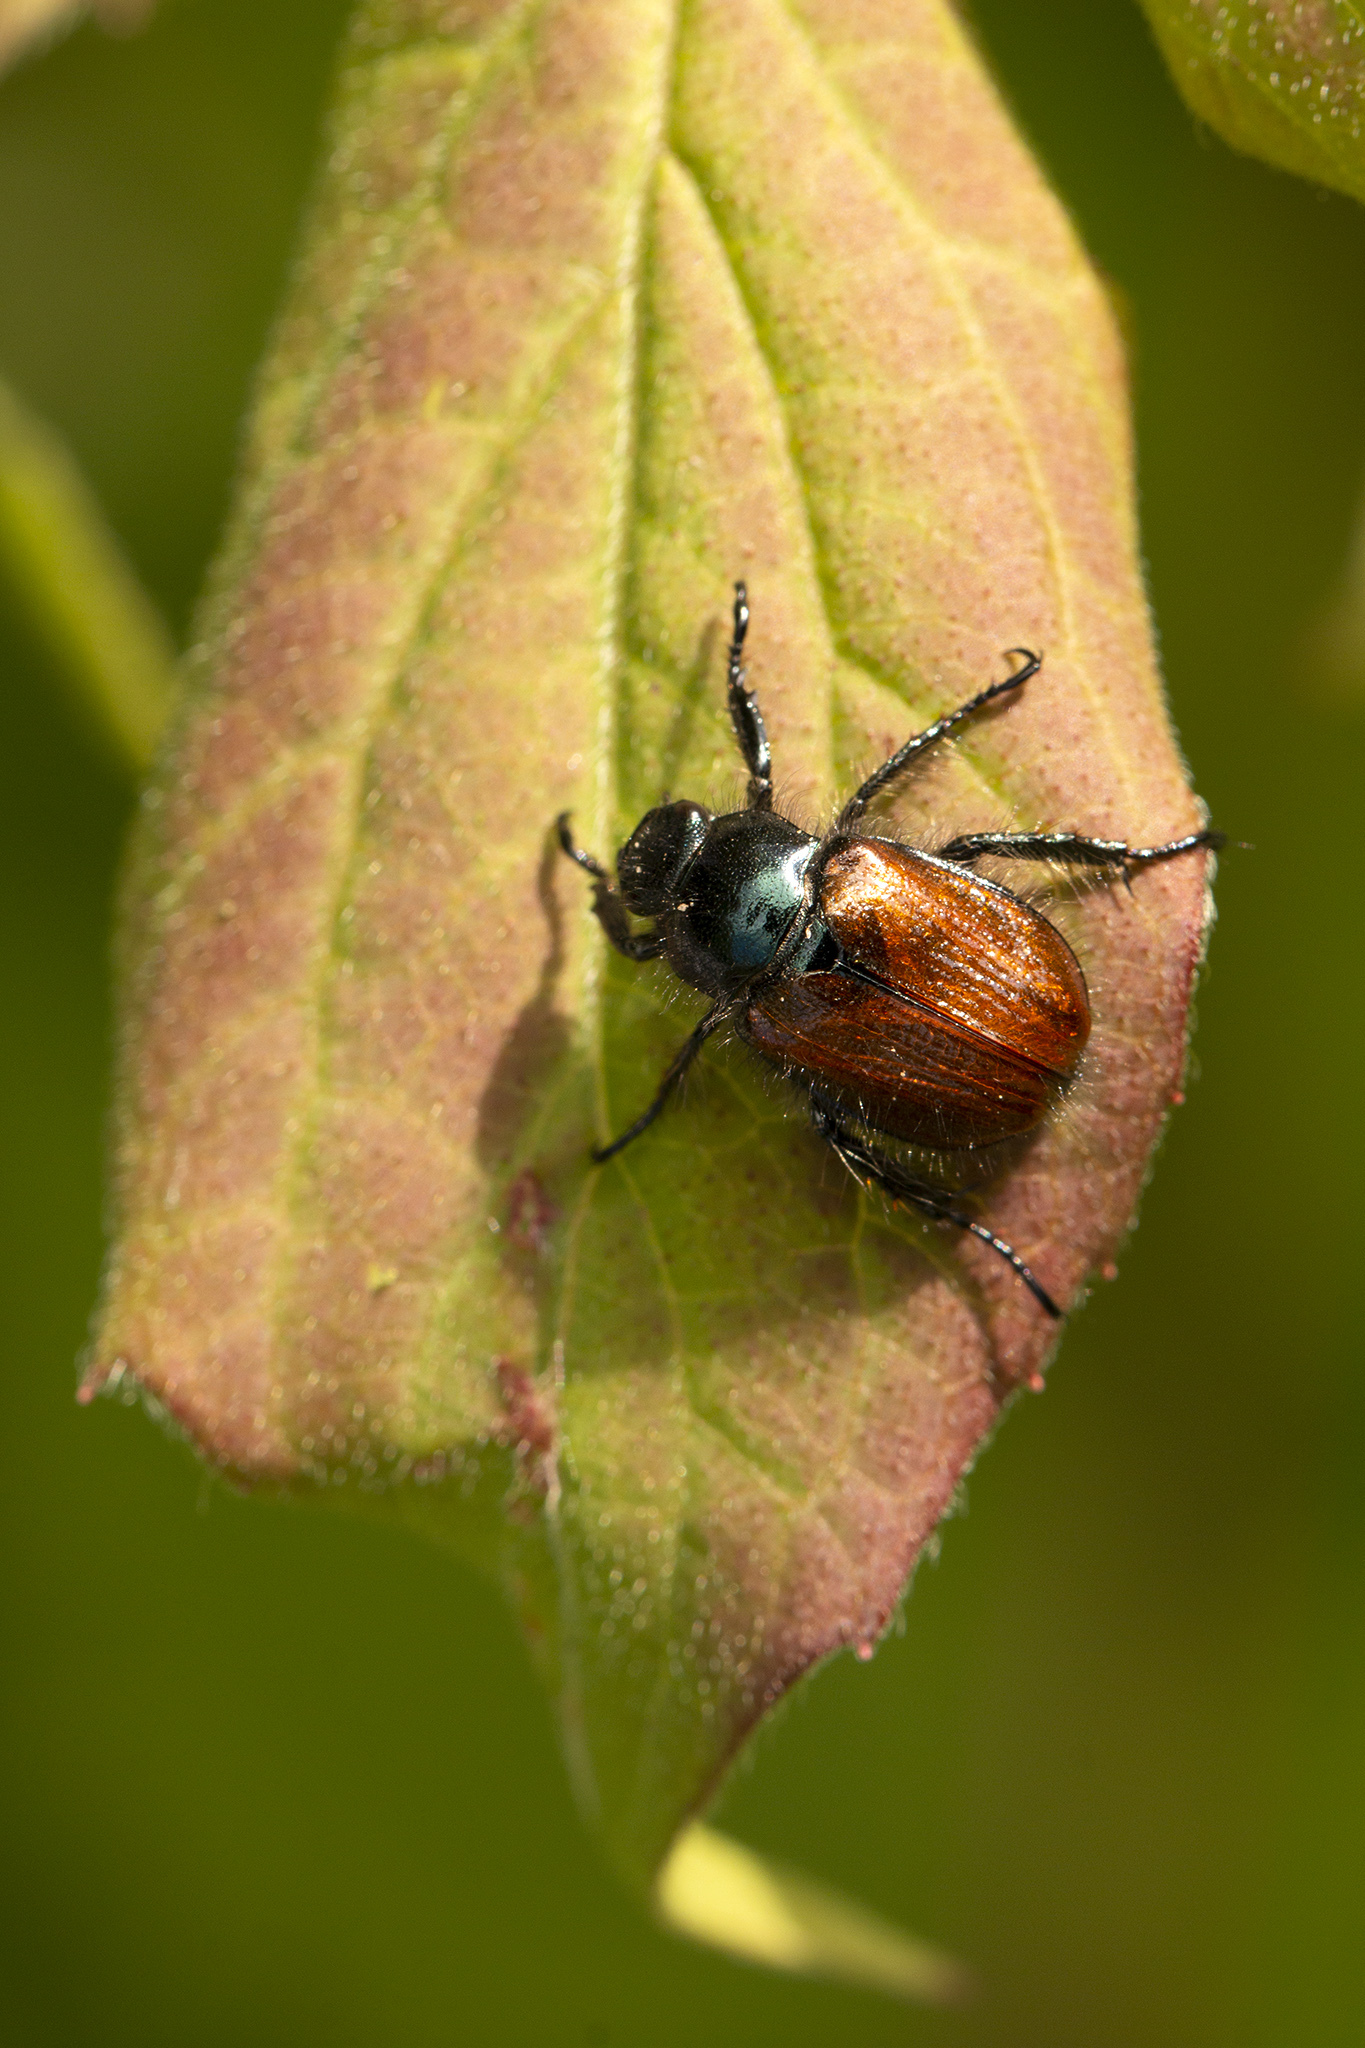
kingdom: Animalia
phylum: Arthropoda
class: Insecta
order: Coleoptera
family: Scarabaeidae
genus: Phyllopertha
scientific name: Phyllopertha horticola
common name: Garden chafer
